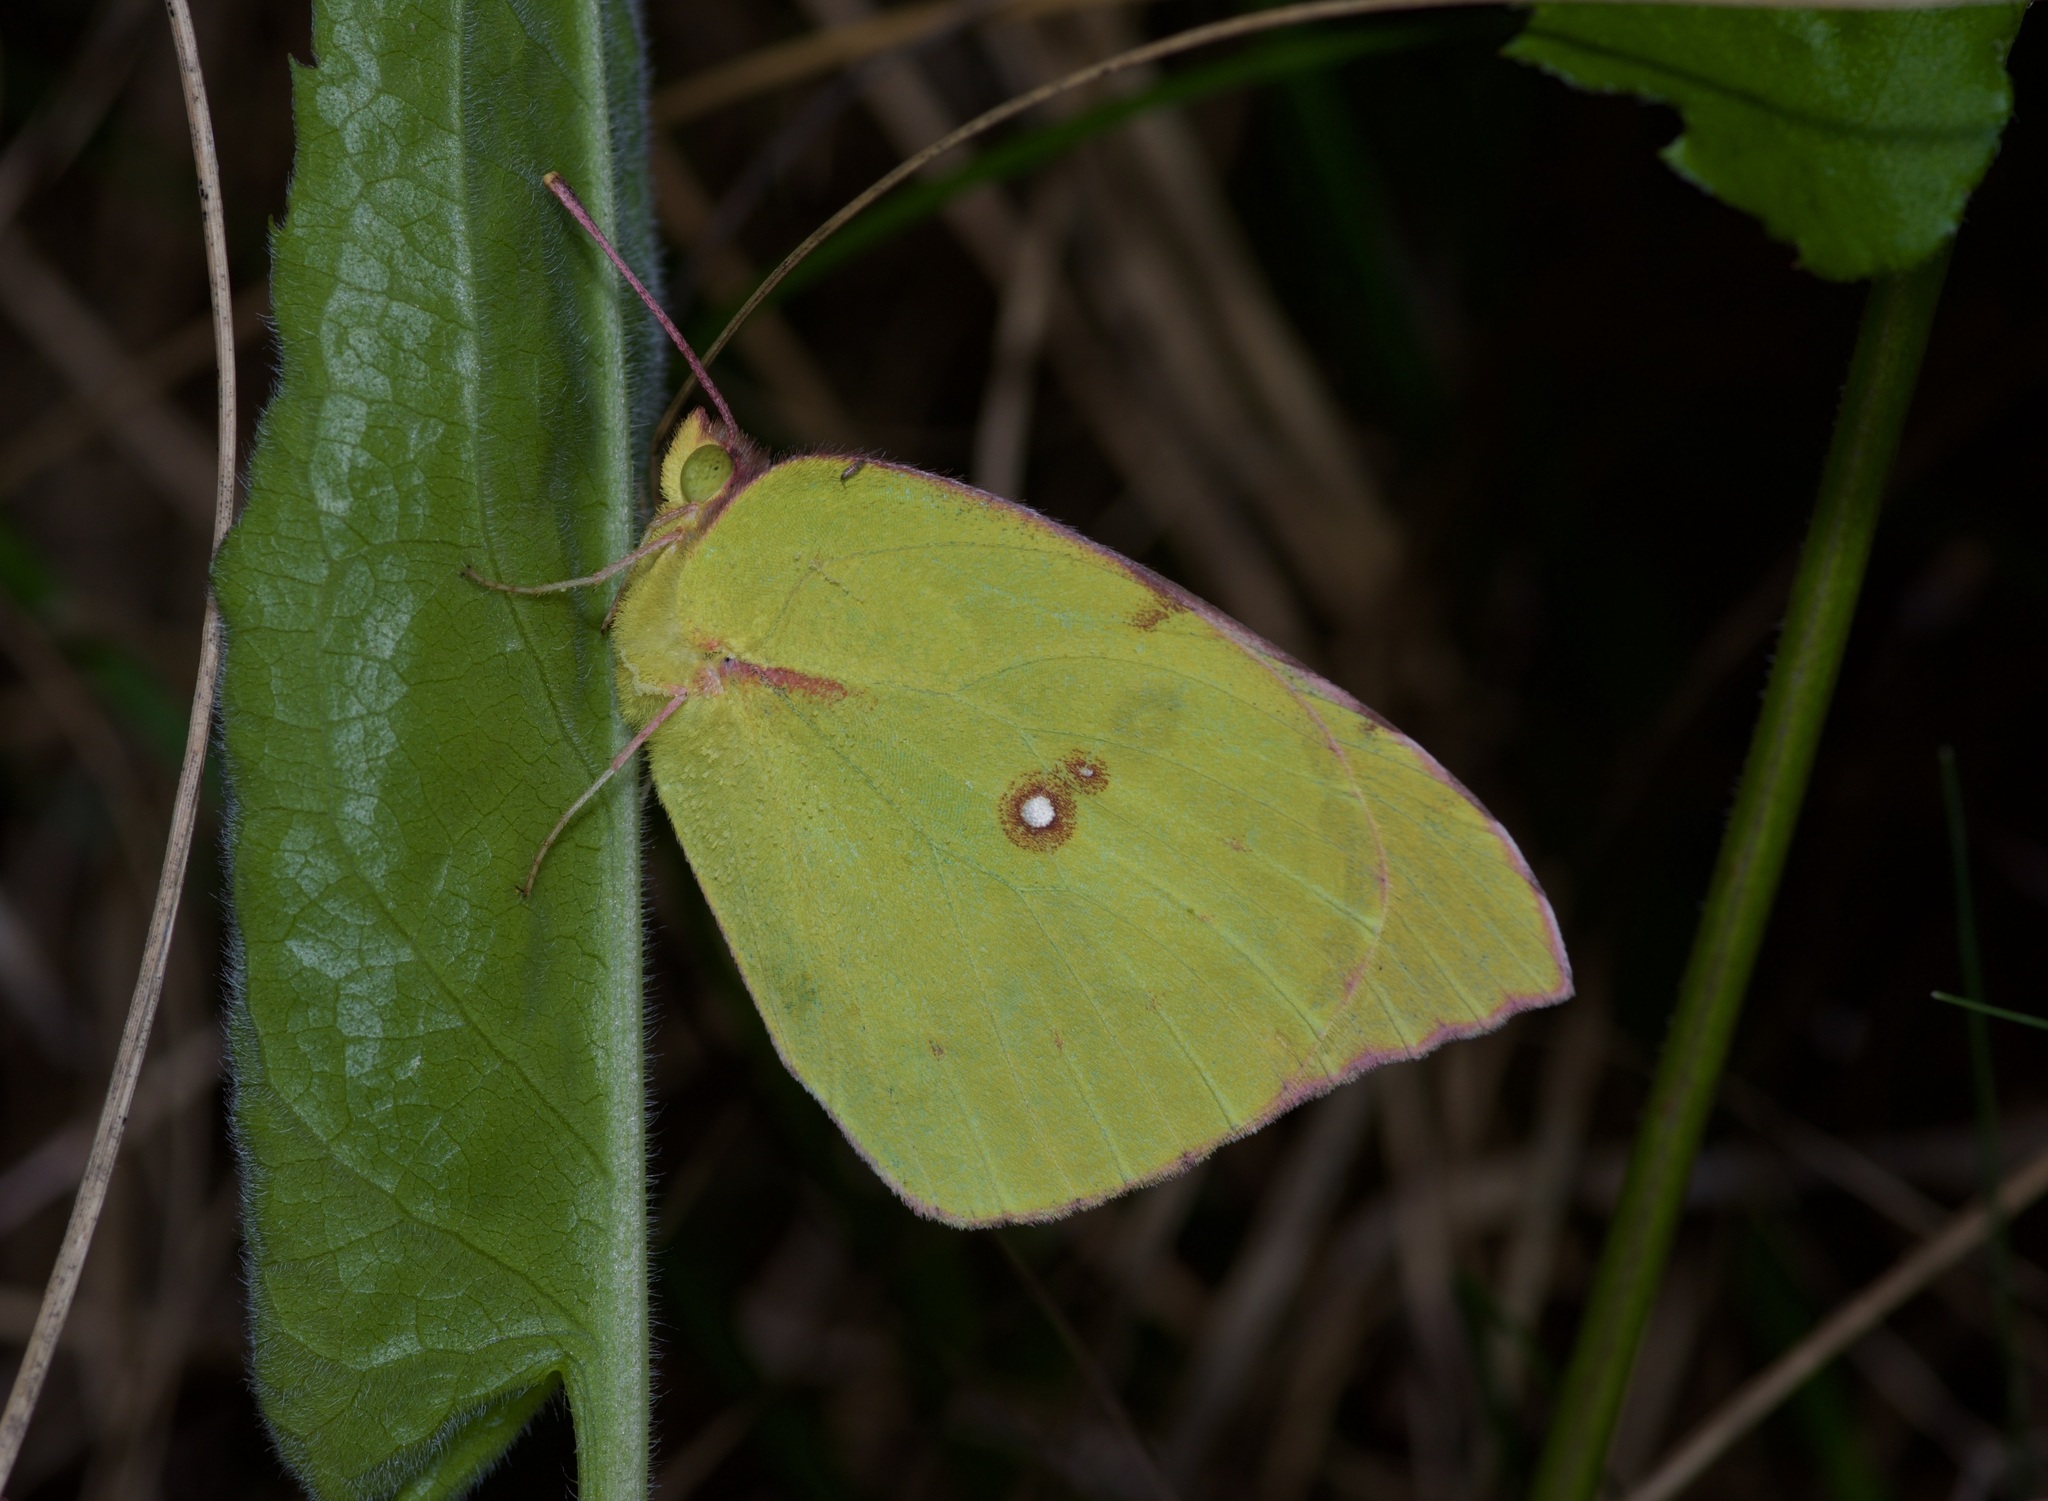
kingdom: Animalia
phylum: Arthropoda
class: Insecta
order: Lepidoptera
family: Pieridae
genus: Zerene
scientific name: Zerene cesonia
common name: Southern dogface
